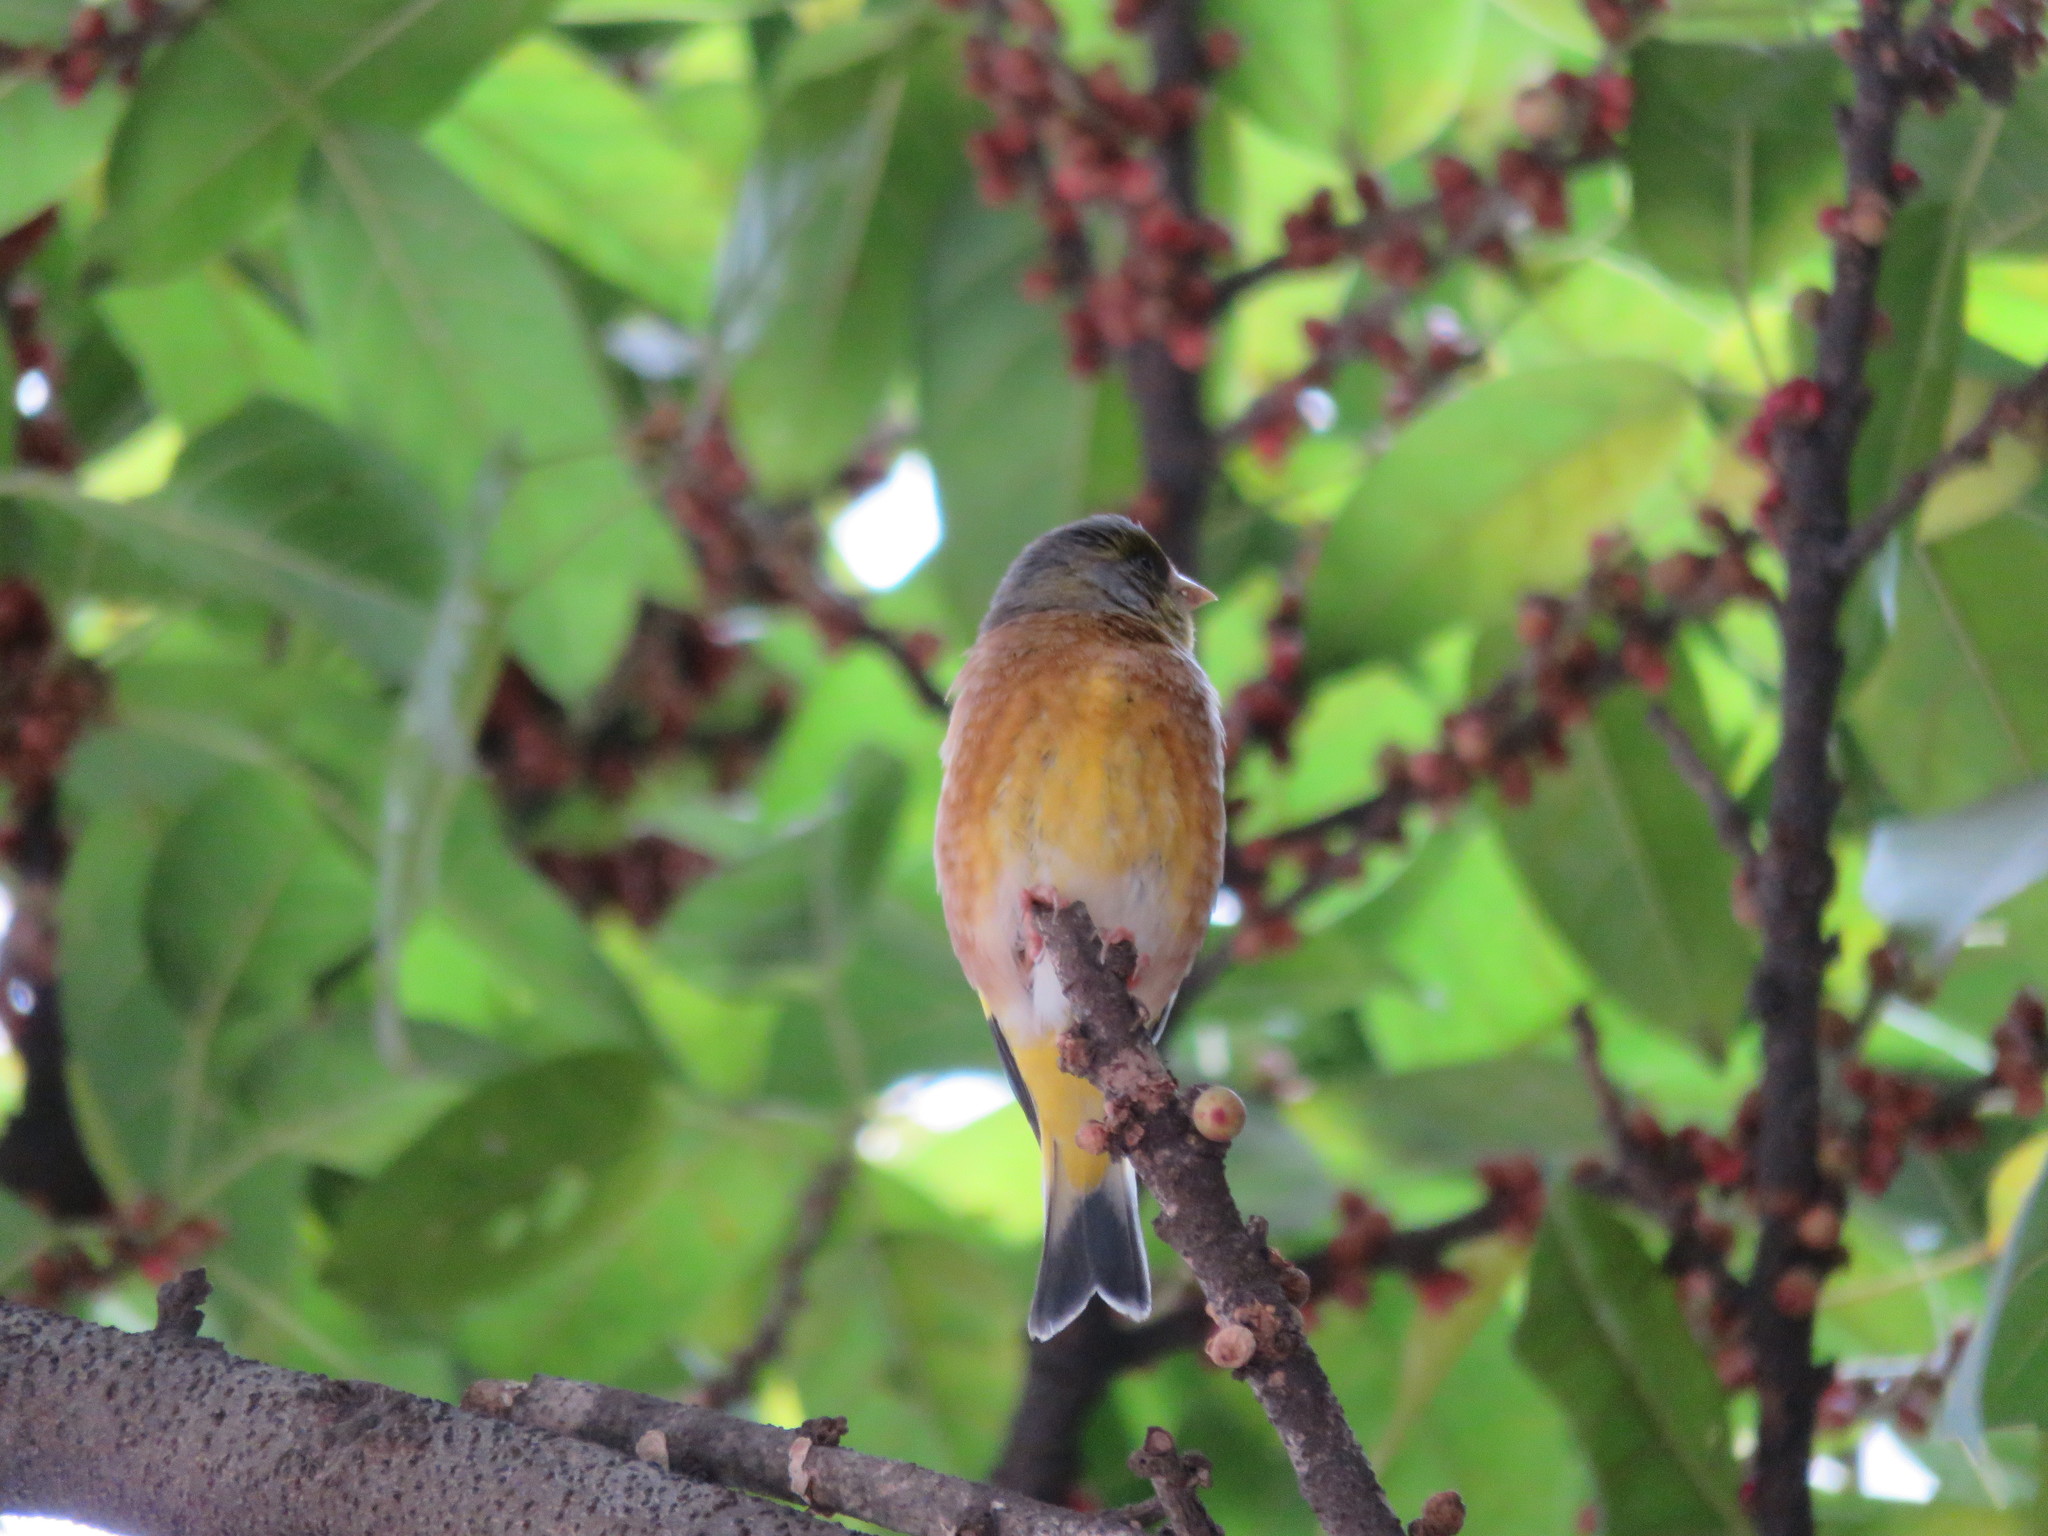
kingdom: Plantae
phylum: Tracheophyta
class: Liliopsida
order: Poales
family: Poaceae
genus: Chloris
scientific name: Chloris sinica
